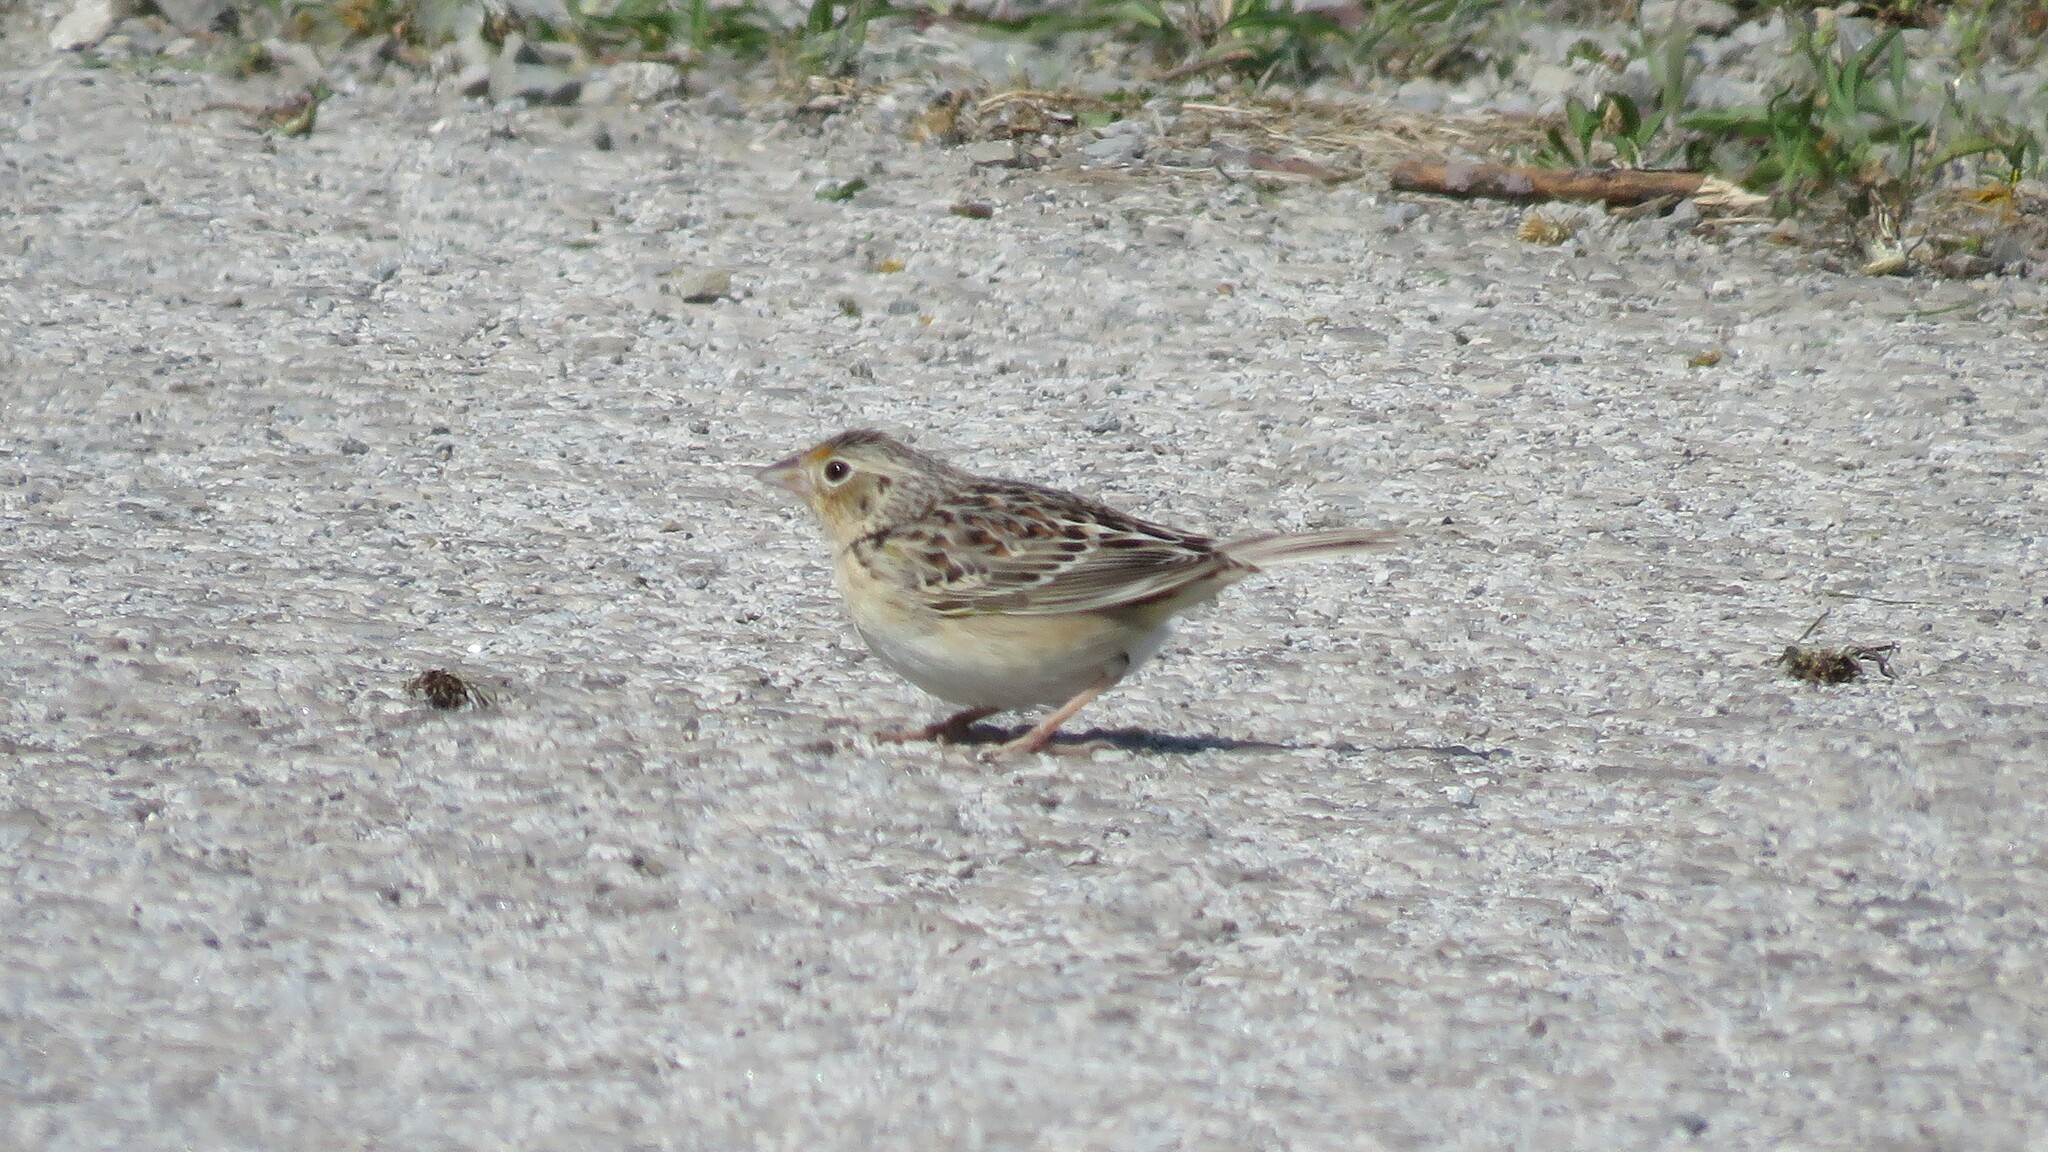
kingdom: Animalia
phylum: Chordata
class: Aves
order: Passeriformes
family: Passerellidae
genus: Ammodramus
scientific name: Ammodramus savannarum
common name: Grasshopper sparrow
